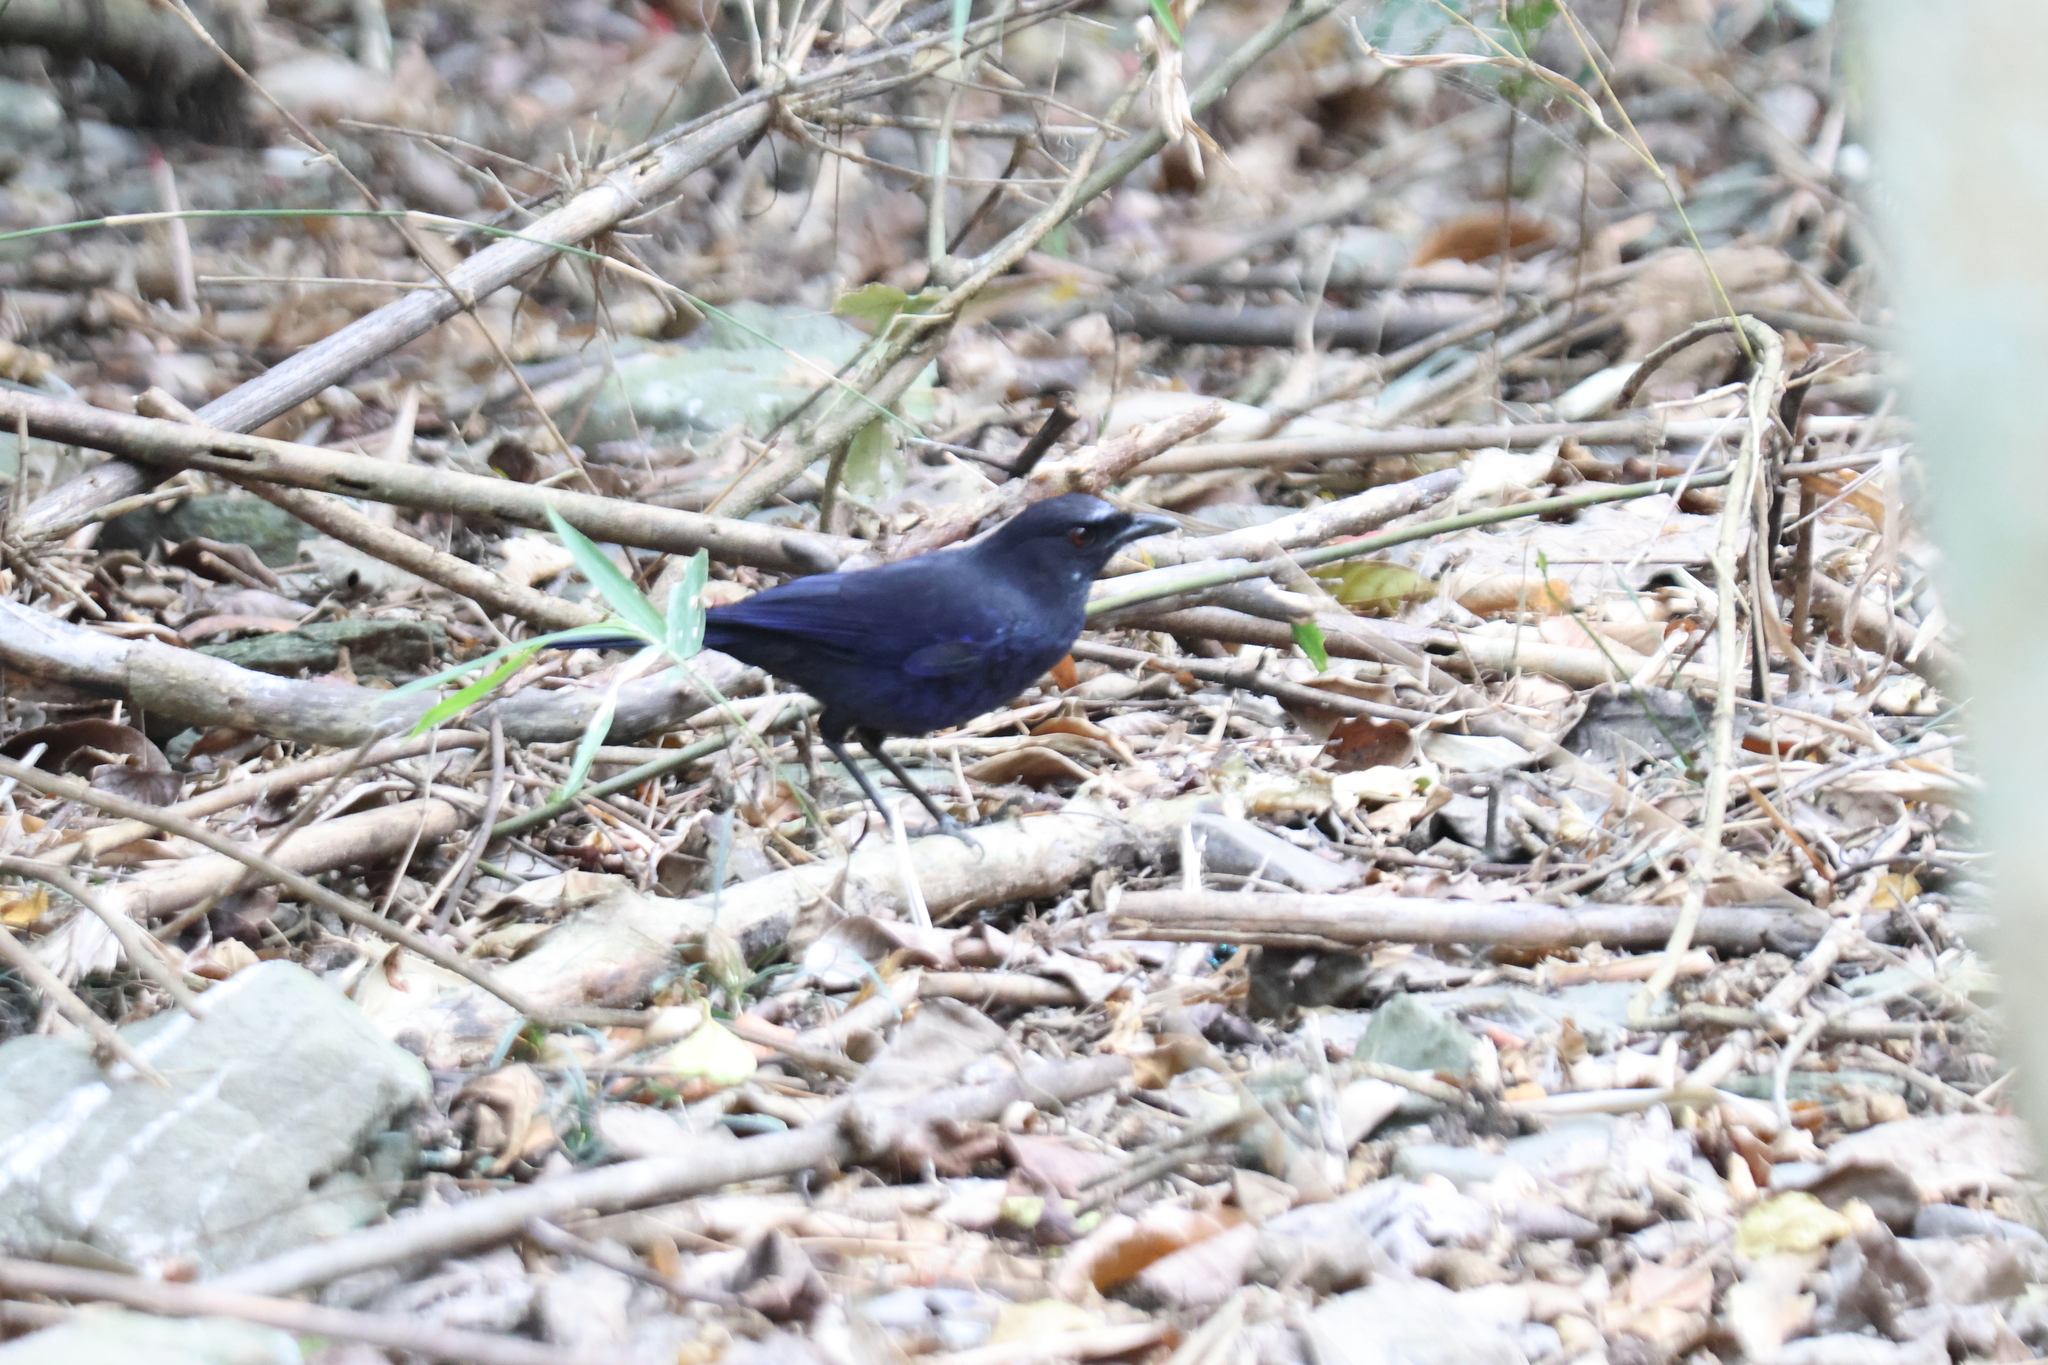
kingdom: Animalia
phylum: Chordata
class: Aves
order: Passeriformes
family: Muscicapidae
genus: Myophonus
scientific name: Myophonus insularis
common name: Taiwan whistling-thrush
